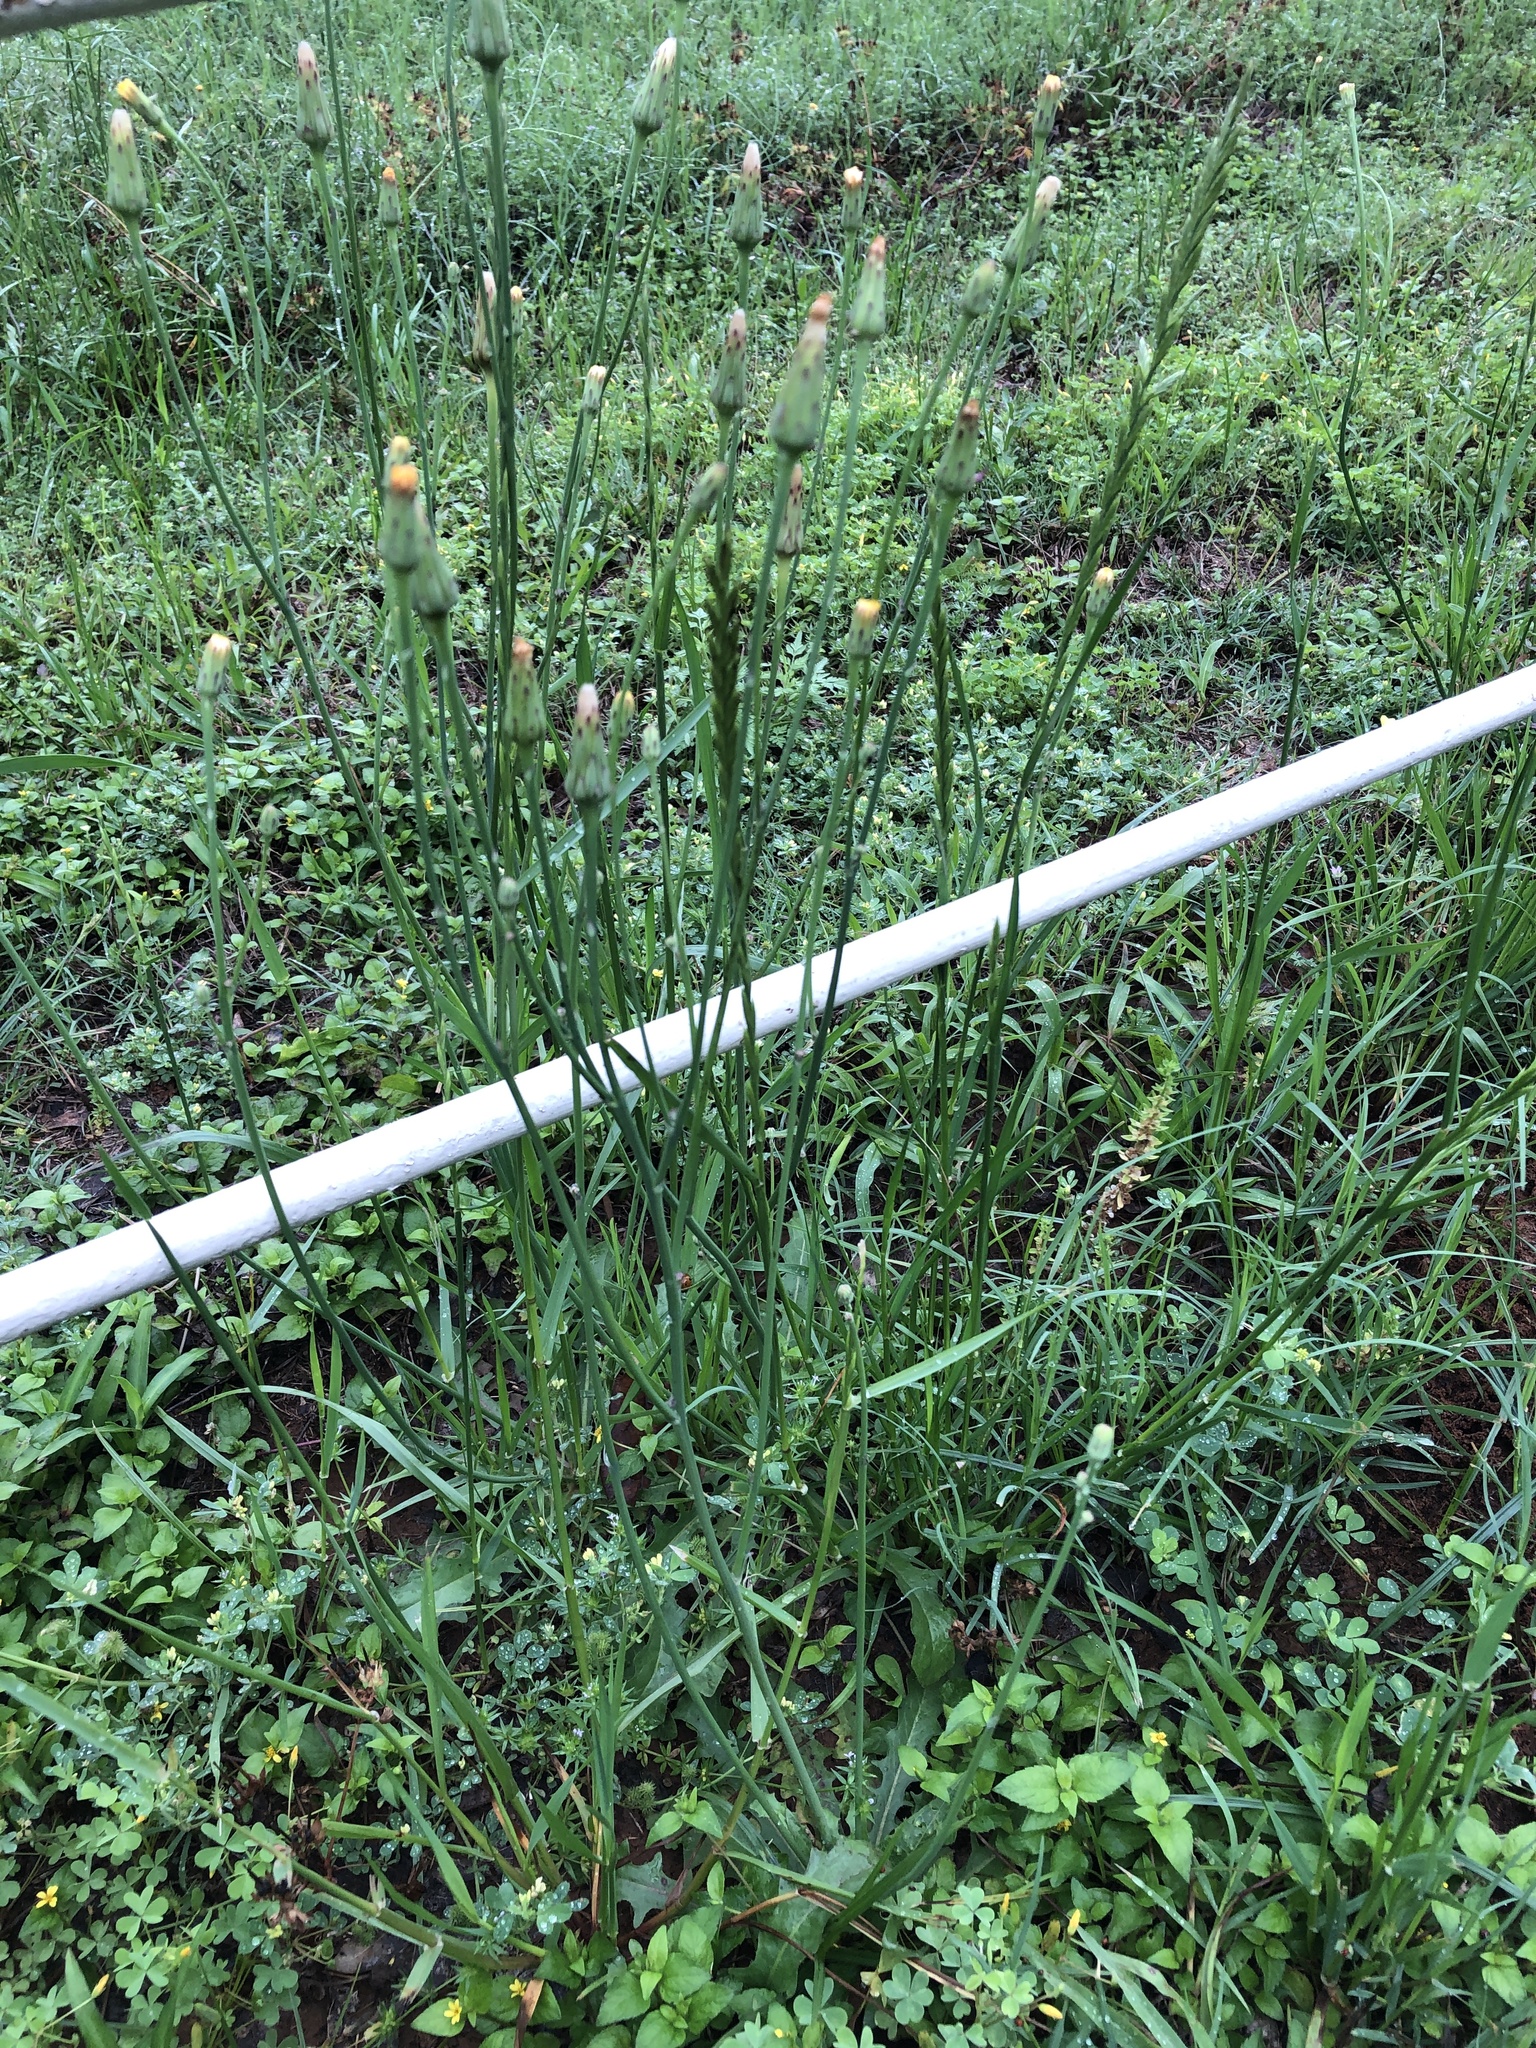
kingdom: Plantae
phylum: Tracheophyta
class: Magnoliopsida
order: Asterales
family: Asteraceae
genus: Hypochaeris
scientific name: Hypochaeris glabra
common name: Smooth catsear
